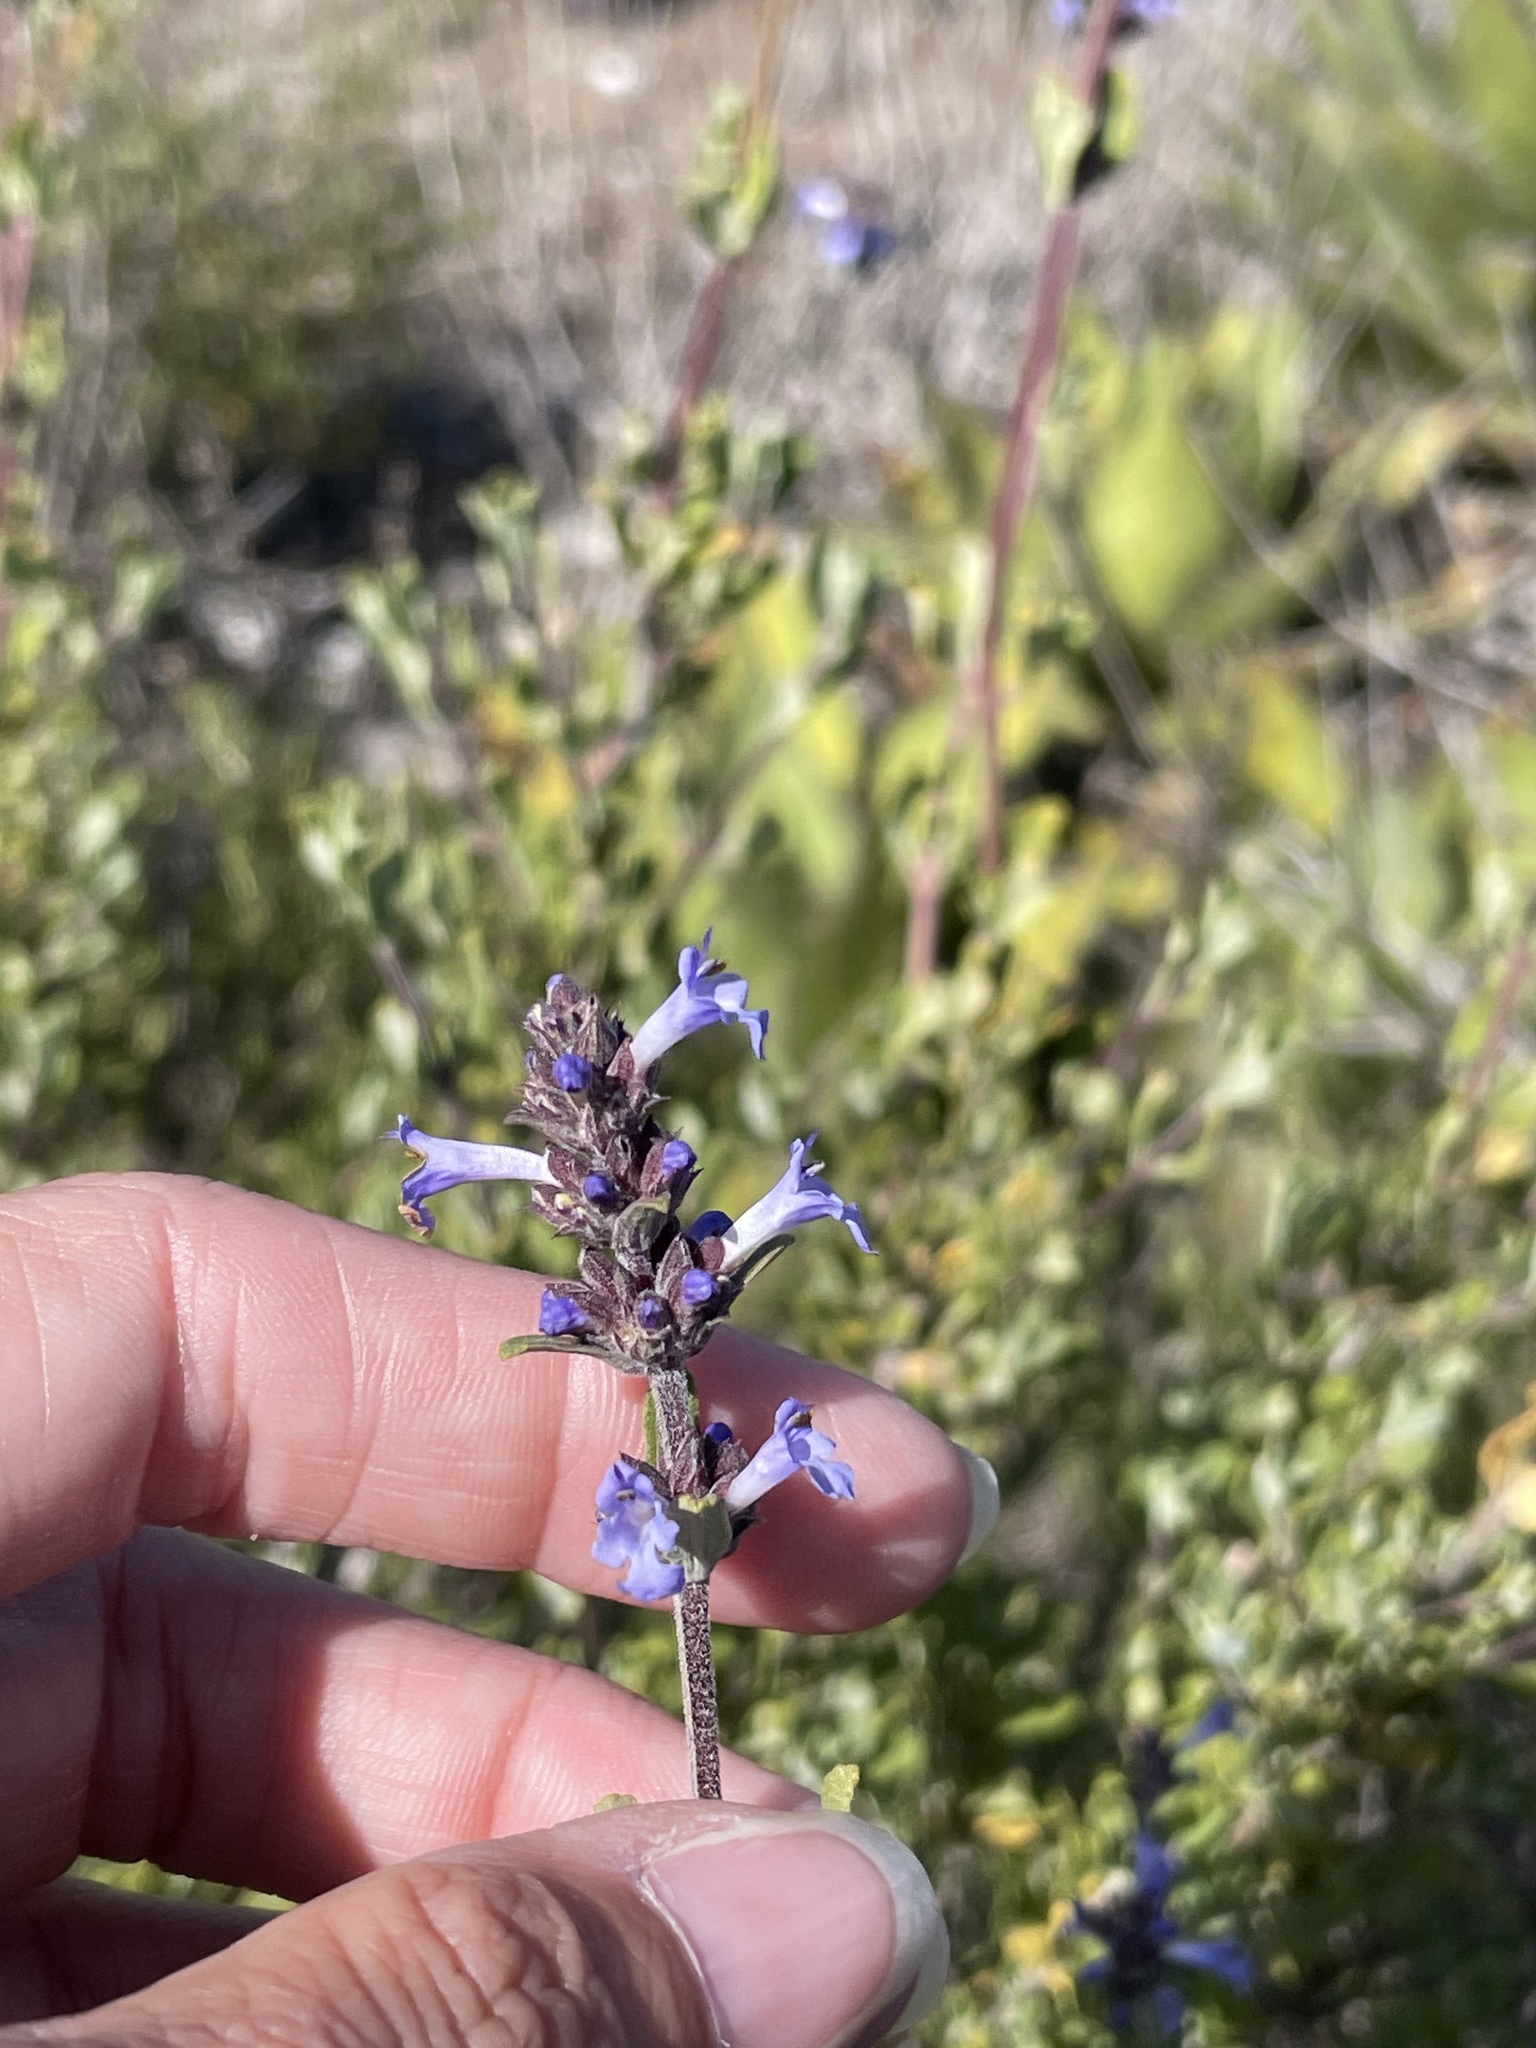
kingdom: Plantae
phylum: Tracheophyta
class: Magnoliopsida
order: Lamiales
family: Lamiaceae
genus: Salvia
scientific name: Salvia munzii
